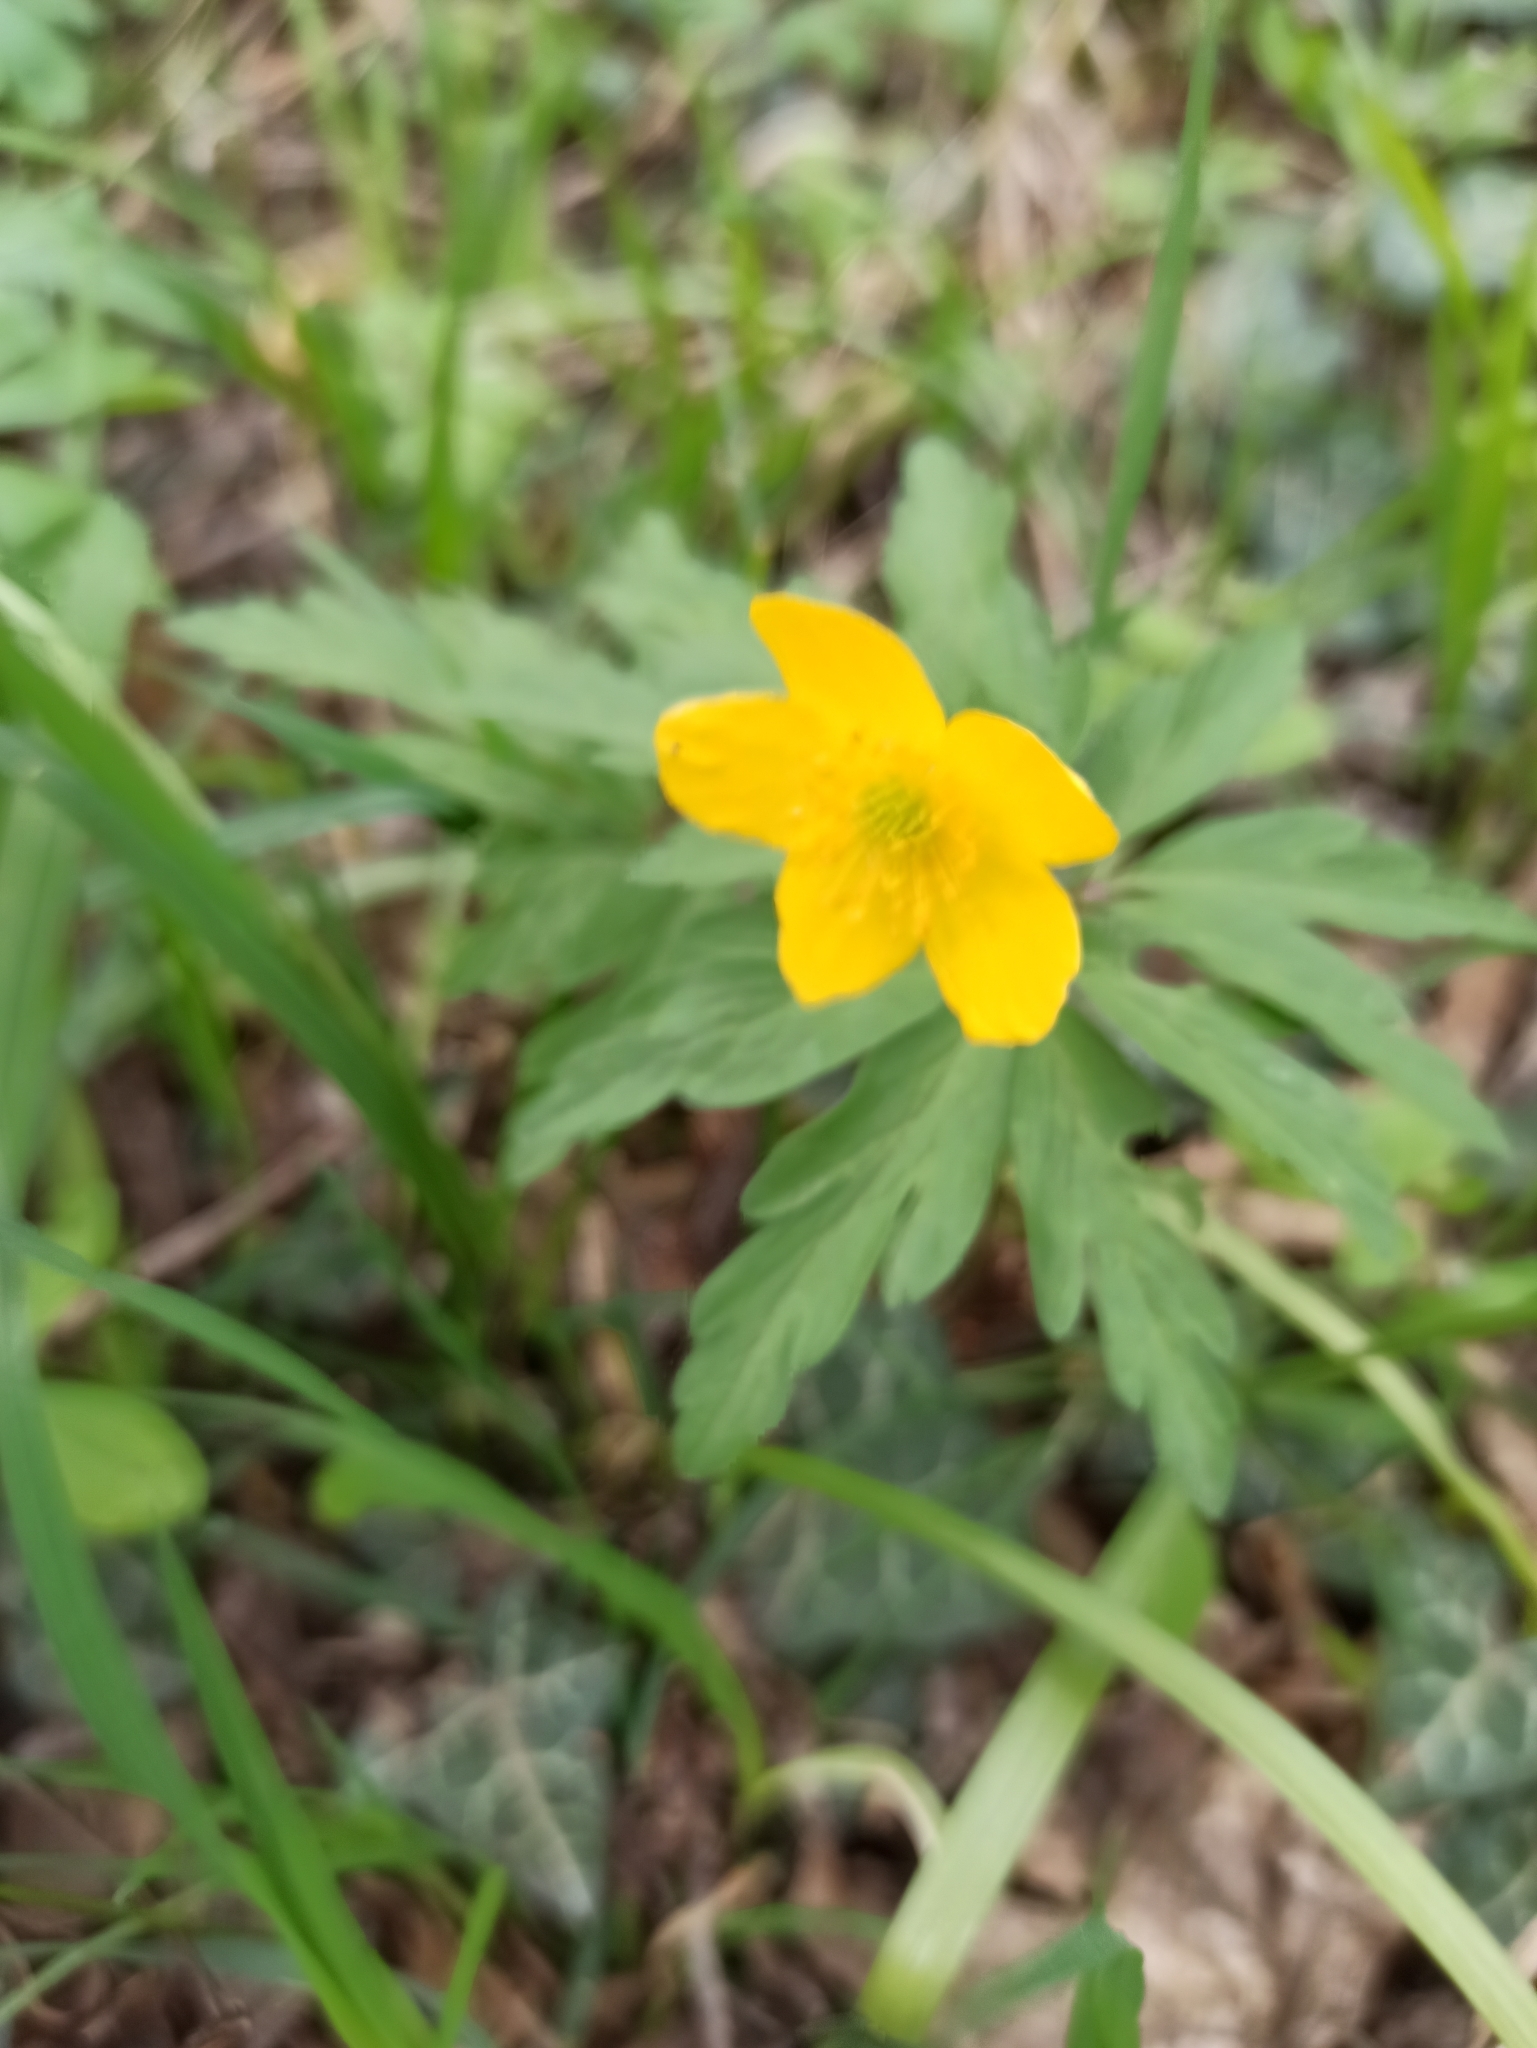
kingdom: Plantae
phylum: Tracheophyta
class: Magnoliopsida
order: Ranunculales
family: Ranunculaceae
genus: Anemone
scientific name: Anemone ranunculoides
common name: Yellow anemone
